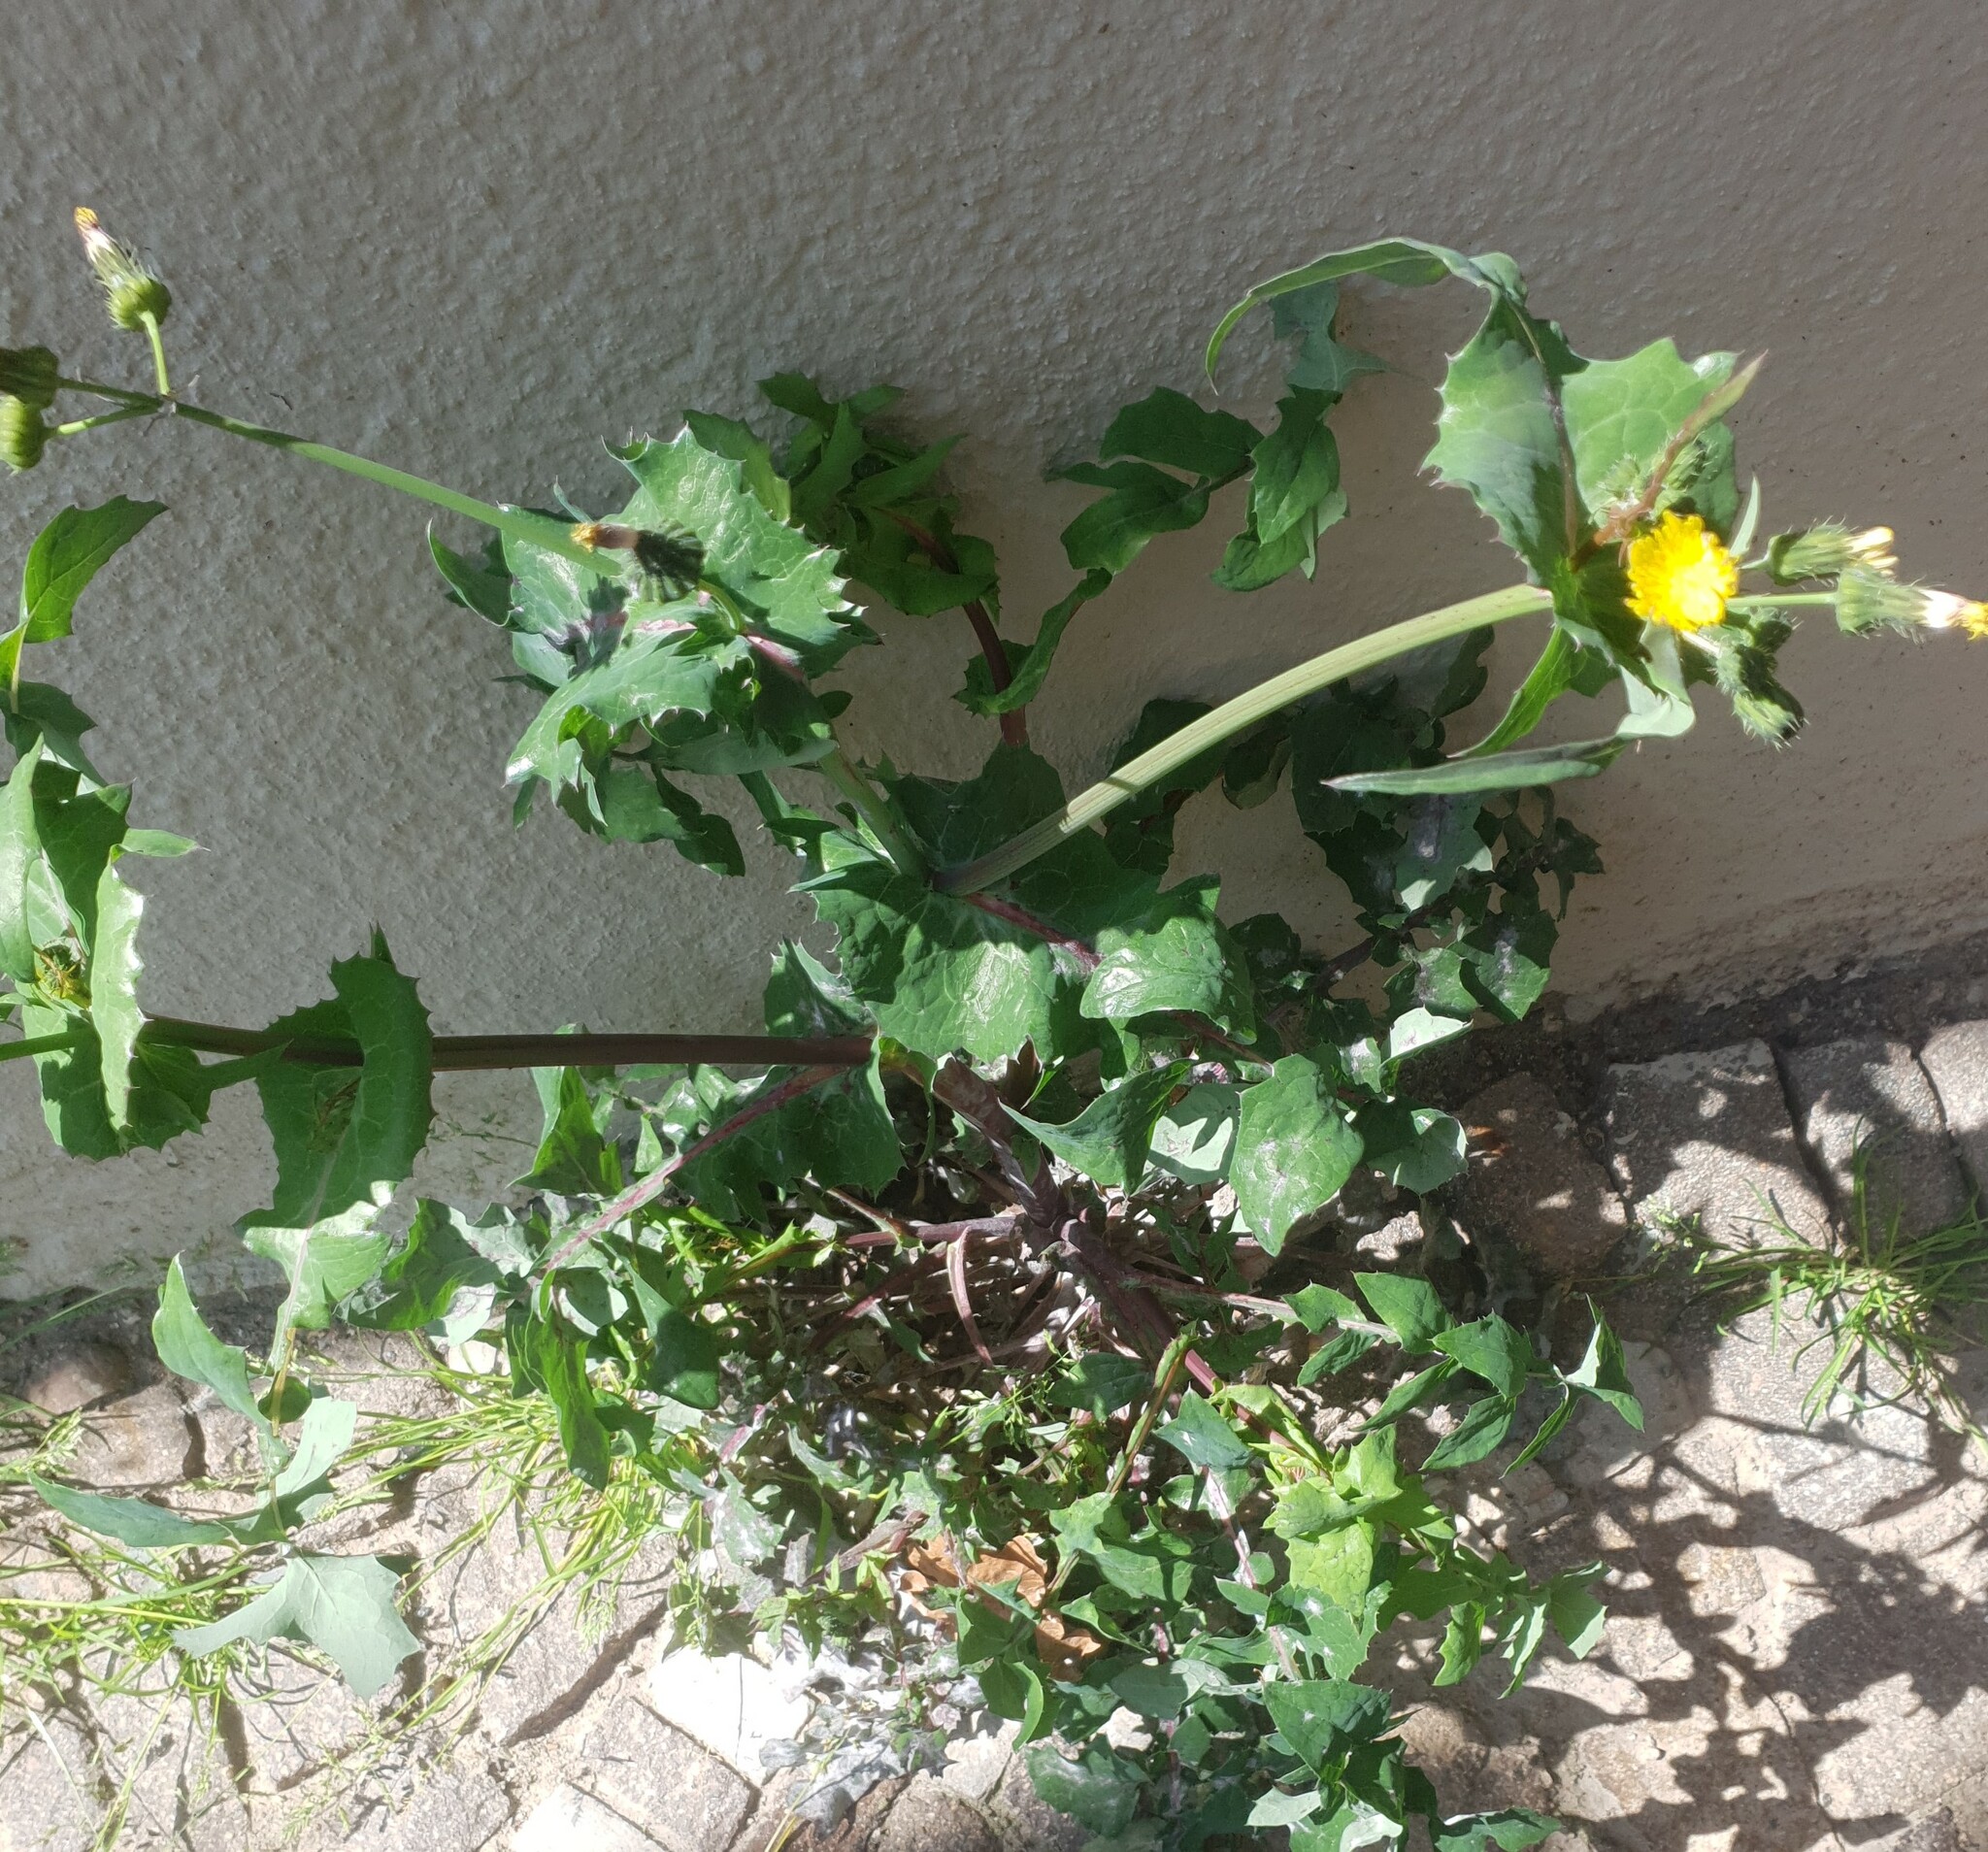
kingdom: Plantae
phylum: Tracheophyta
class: Magnoliopsida
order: Asterales
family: Asteraceae
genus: Sonchus
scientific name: Sonchus oleraceus
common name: Common sowthistle
